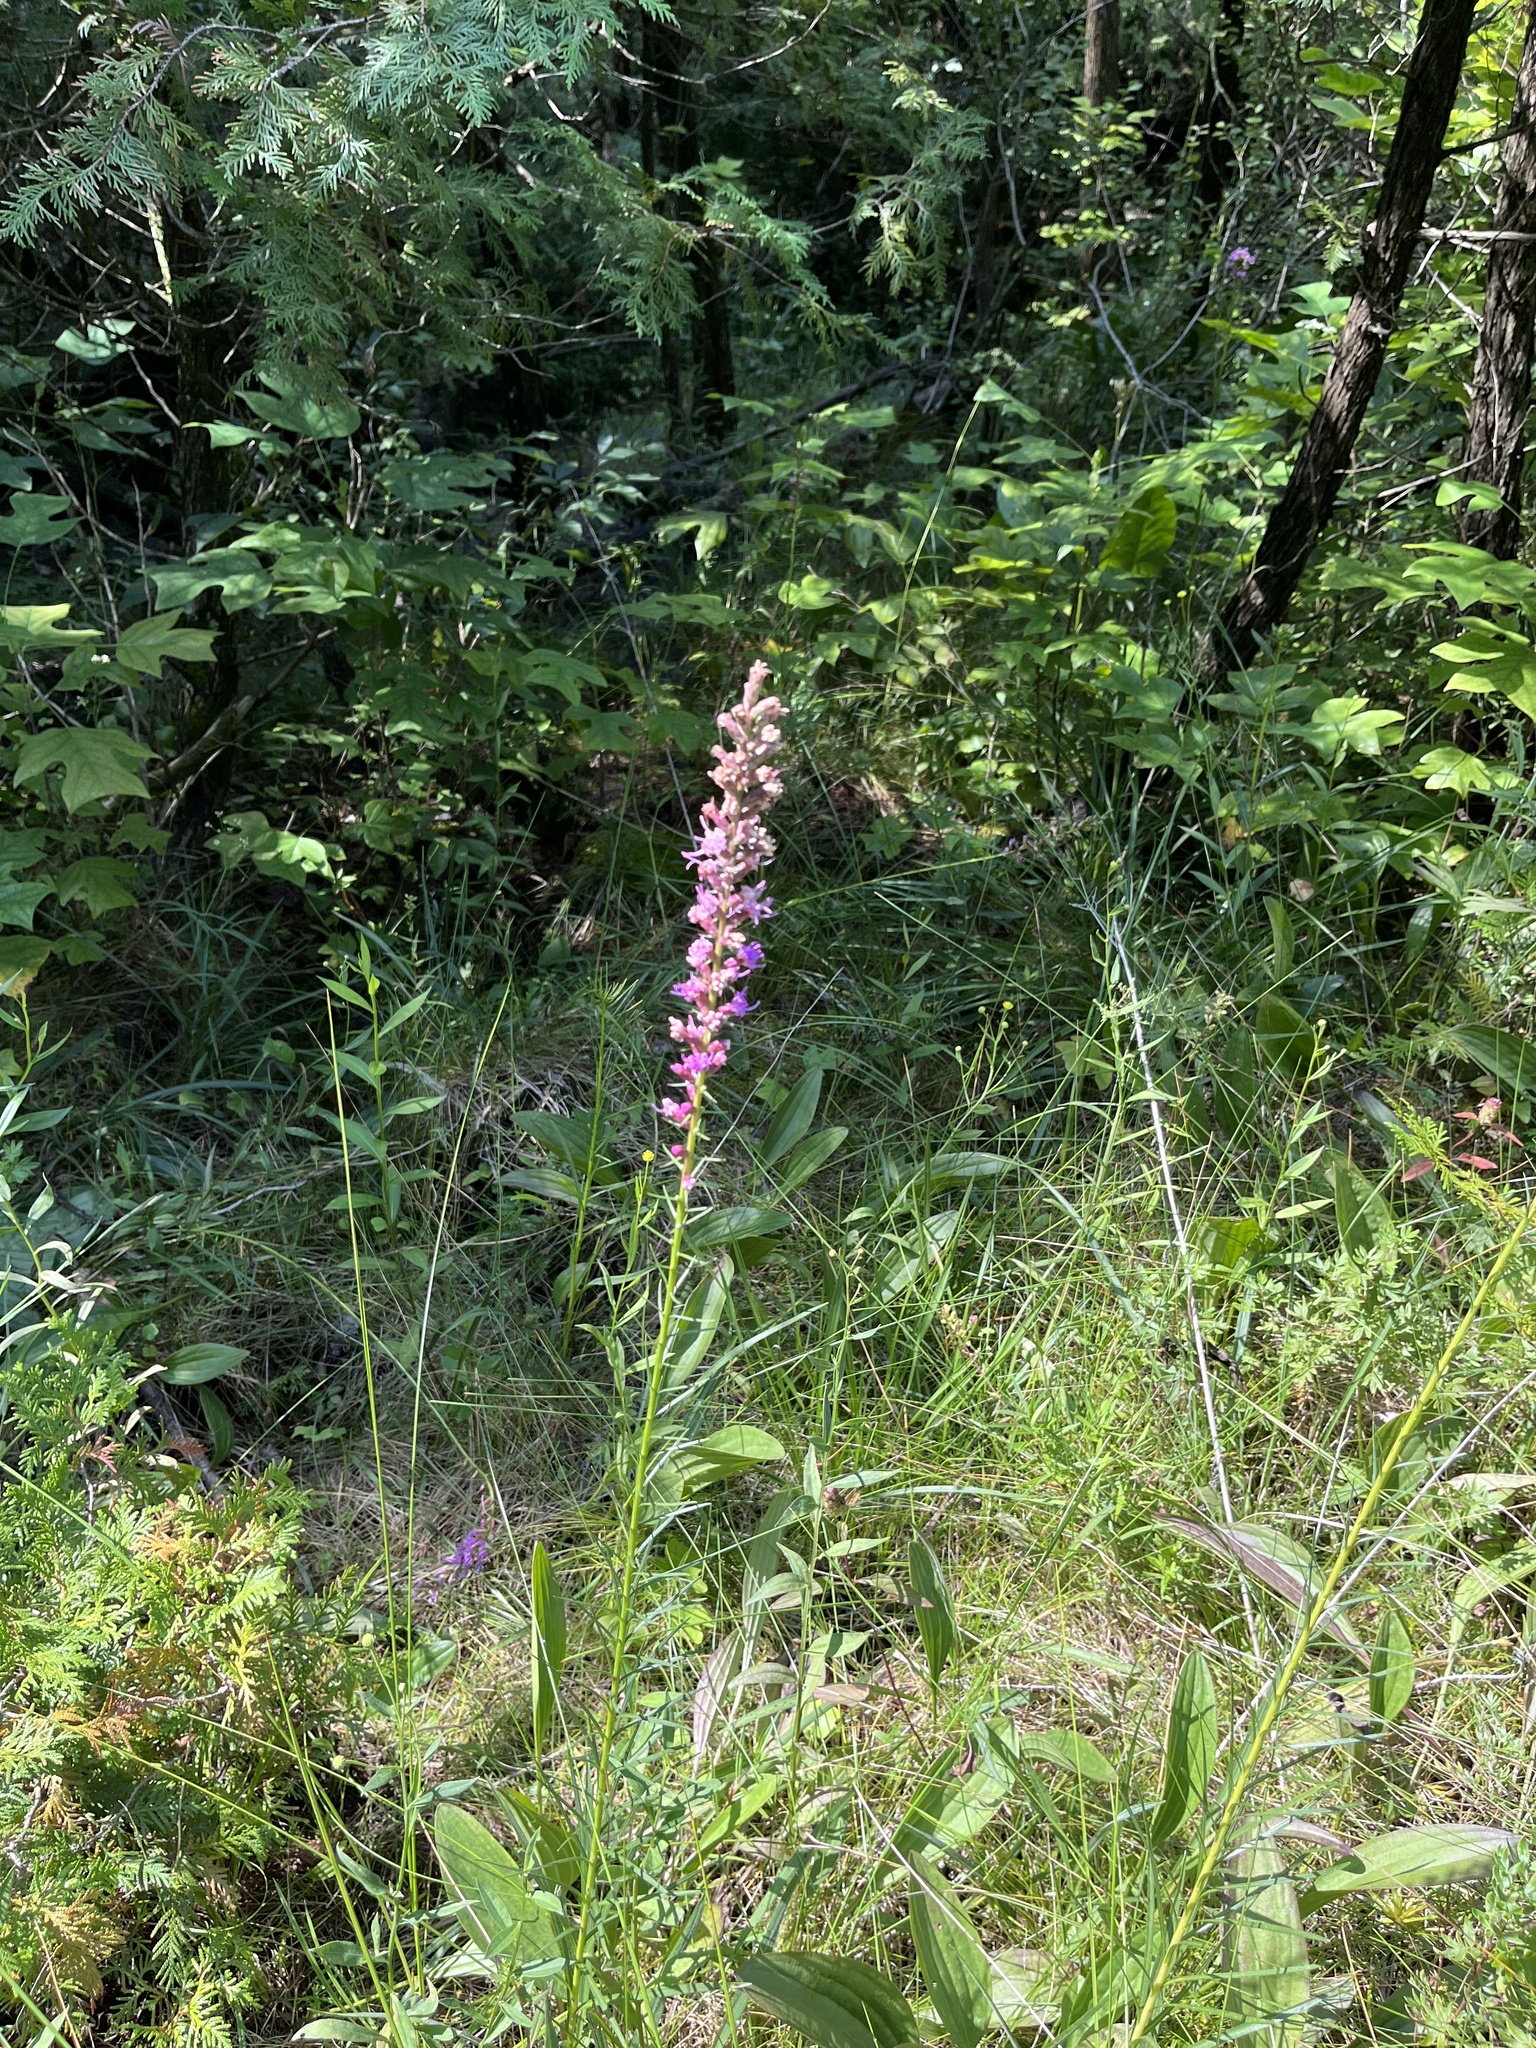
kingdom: Plantae
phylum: Tracheophyta
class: Magnoliopsida
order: Asterales
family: Asteraceae
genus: Liatris
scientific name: Liatris spicata
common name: Florist gayfeather
